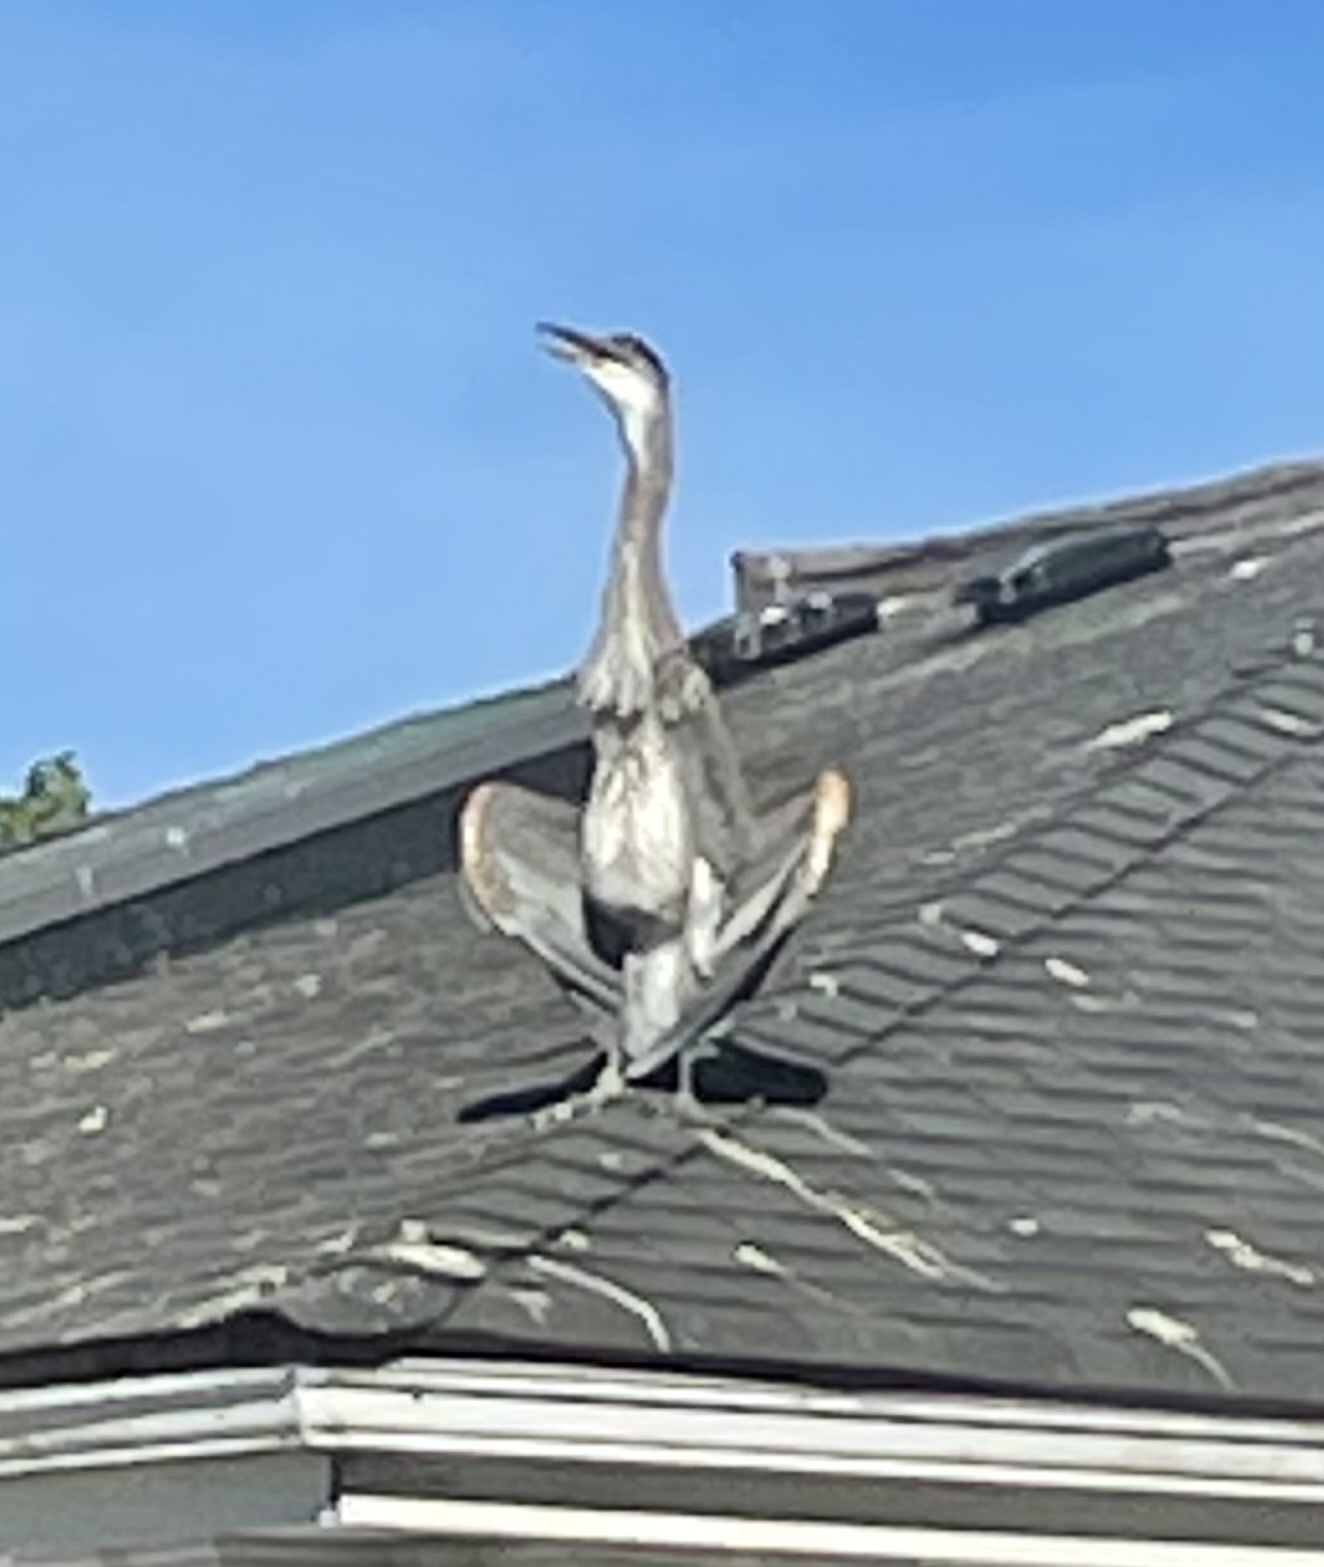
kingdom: Animalia
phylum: Chordata
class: Aves
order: Pelecaniformes
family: Ardeidae
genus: Ardea
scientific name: Ardea herodias
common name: Great blue heron
